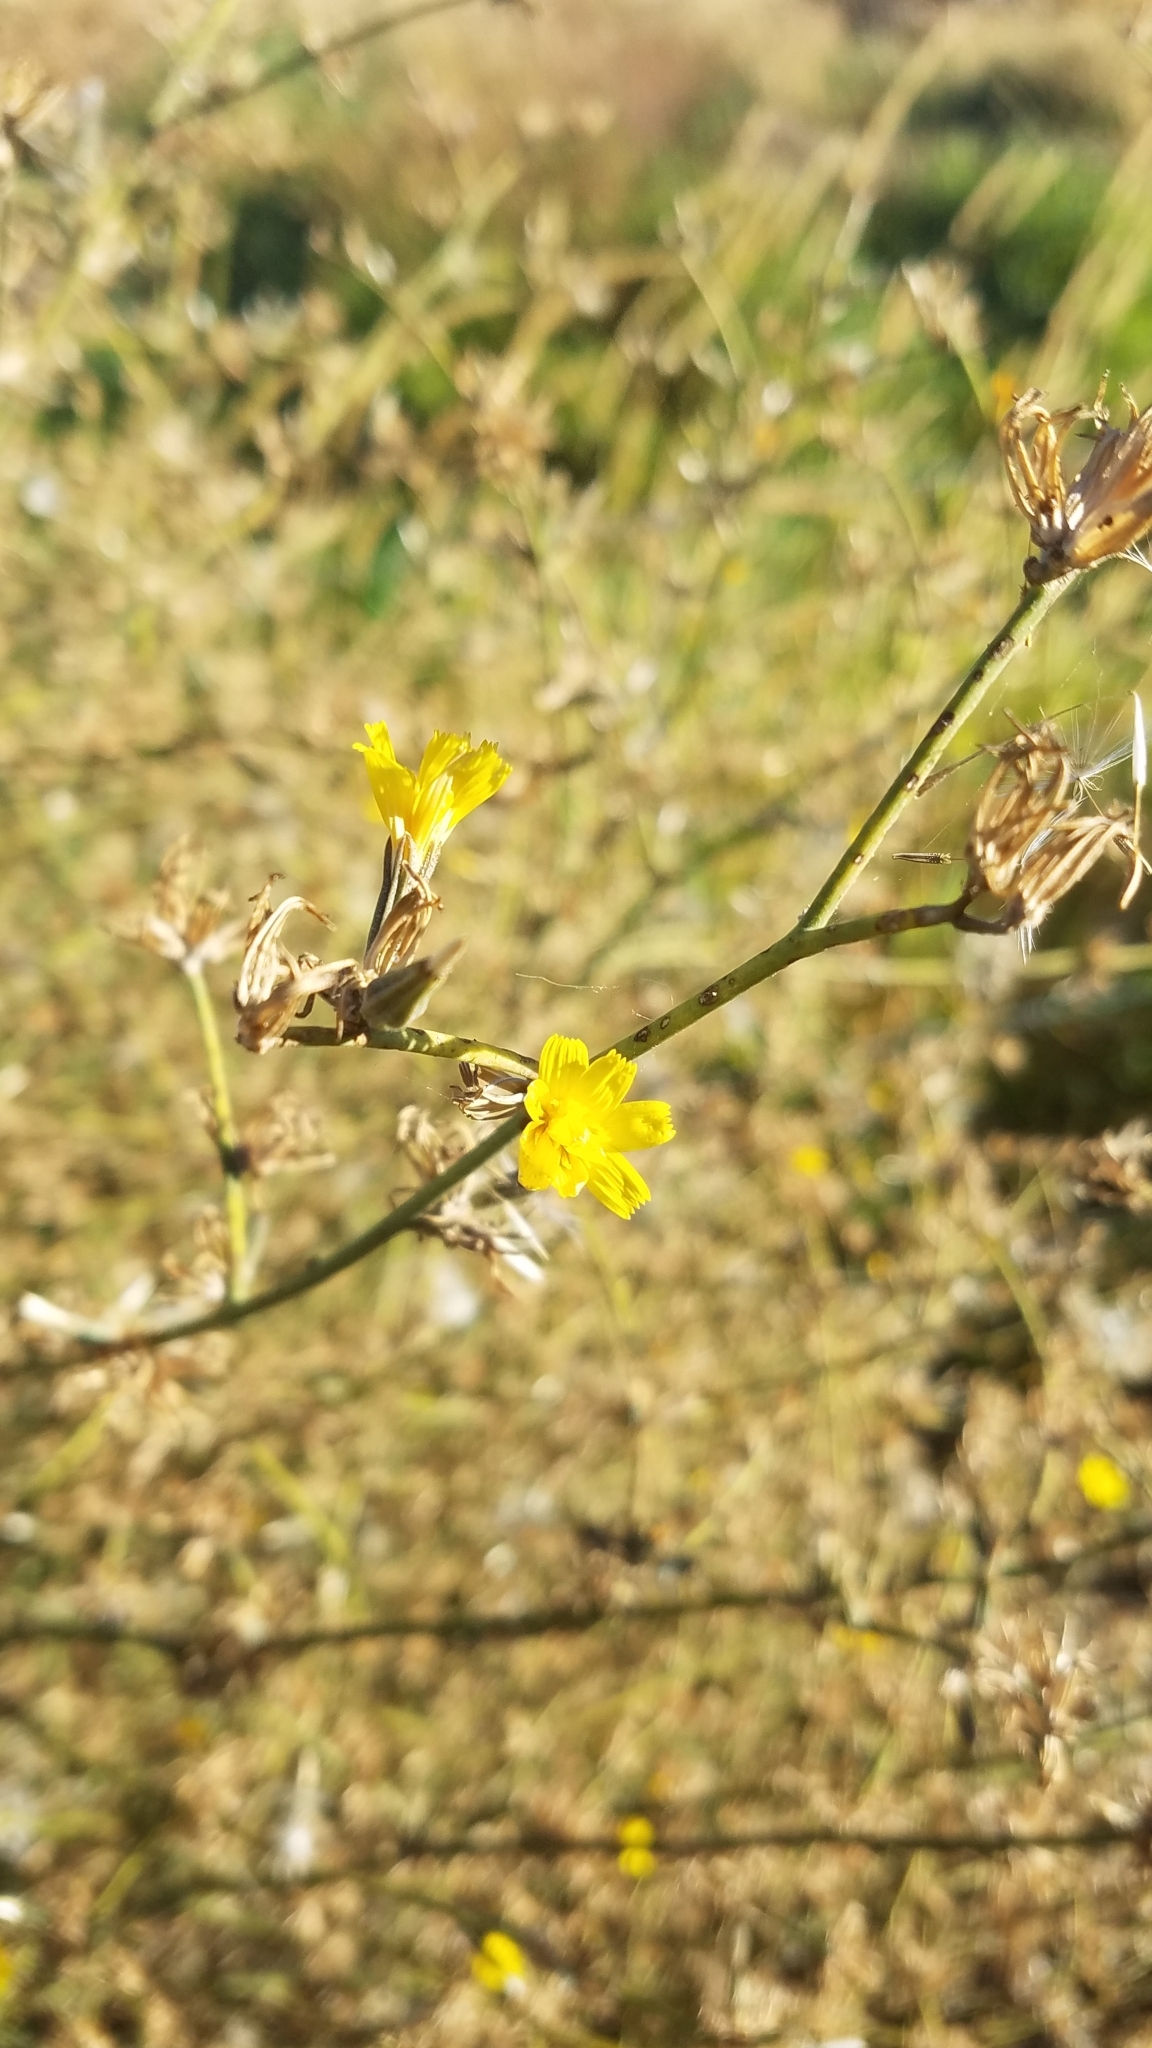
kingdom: Plantae
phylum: Tracheophyta
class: Magnoliopsida
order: Asterales
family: Asteraceae
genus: Chondrilla
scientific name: Chondrilla juncea
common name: Skeleton weed
